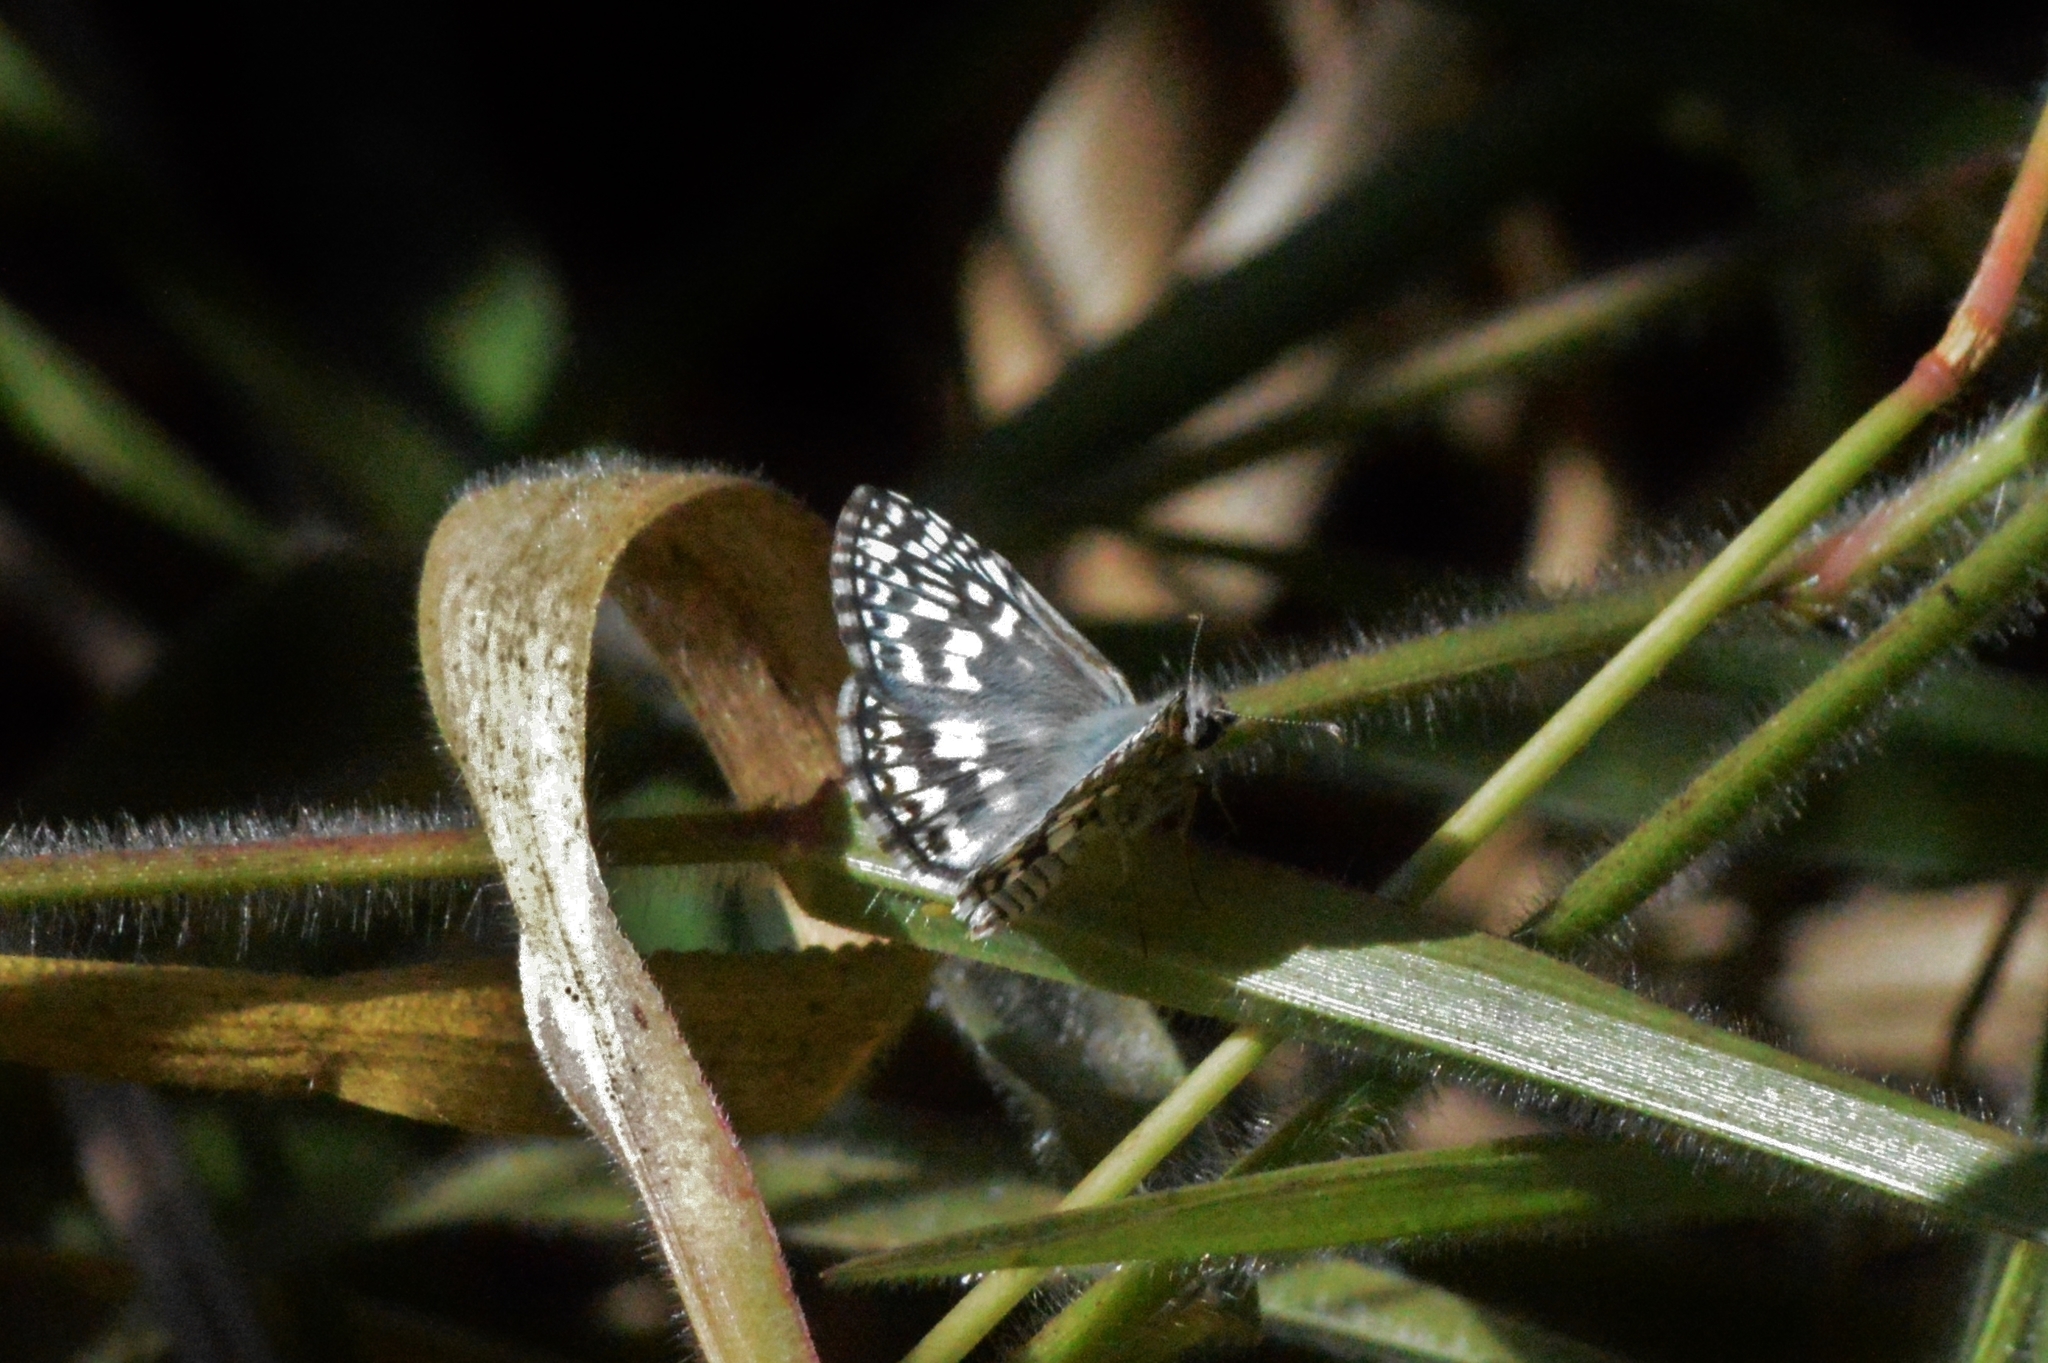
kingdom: Animalia
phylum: Arthropoda
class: Insecta
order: Lepidoptera
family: Hesperiidae
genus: Pyrgus
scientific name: Pyrgus oileus
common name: Tropical checkered-skipper
